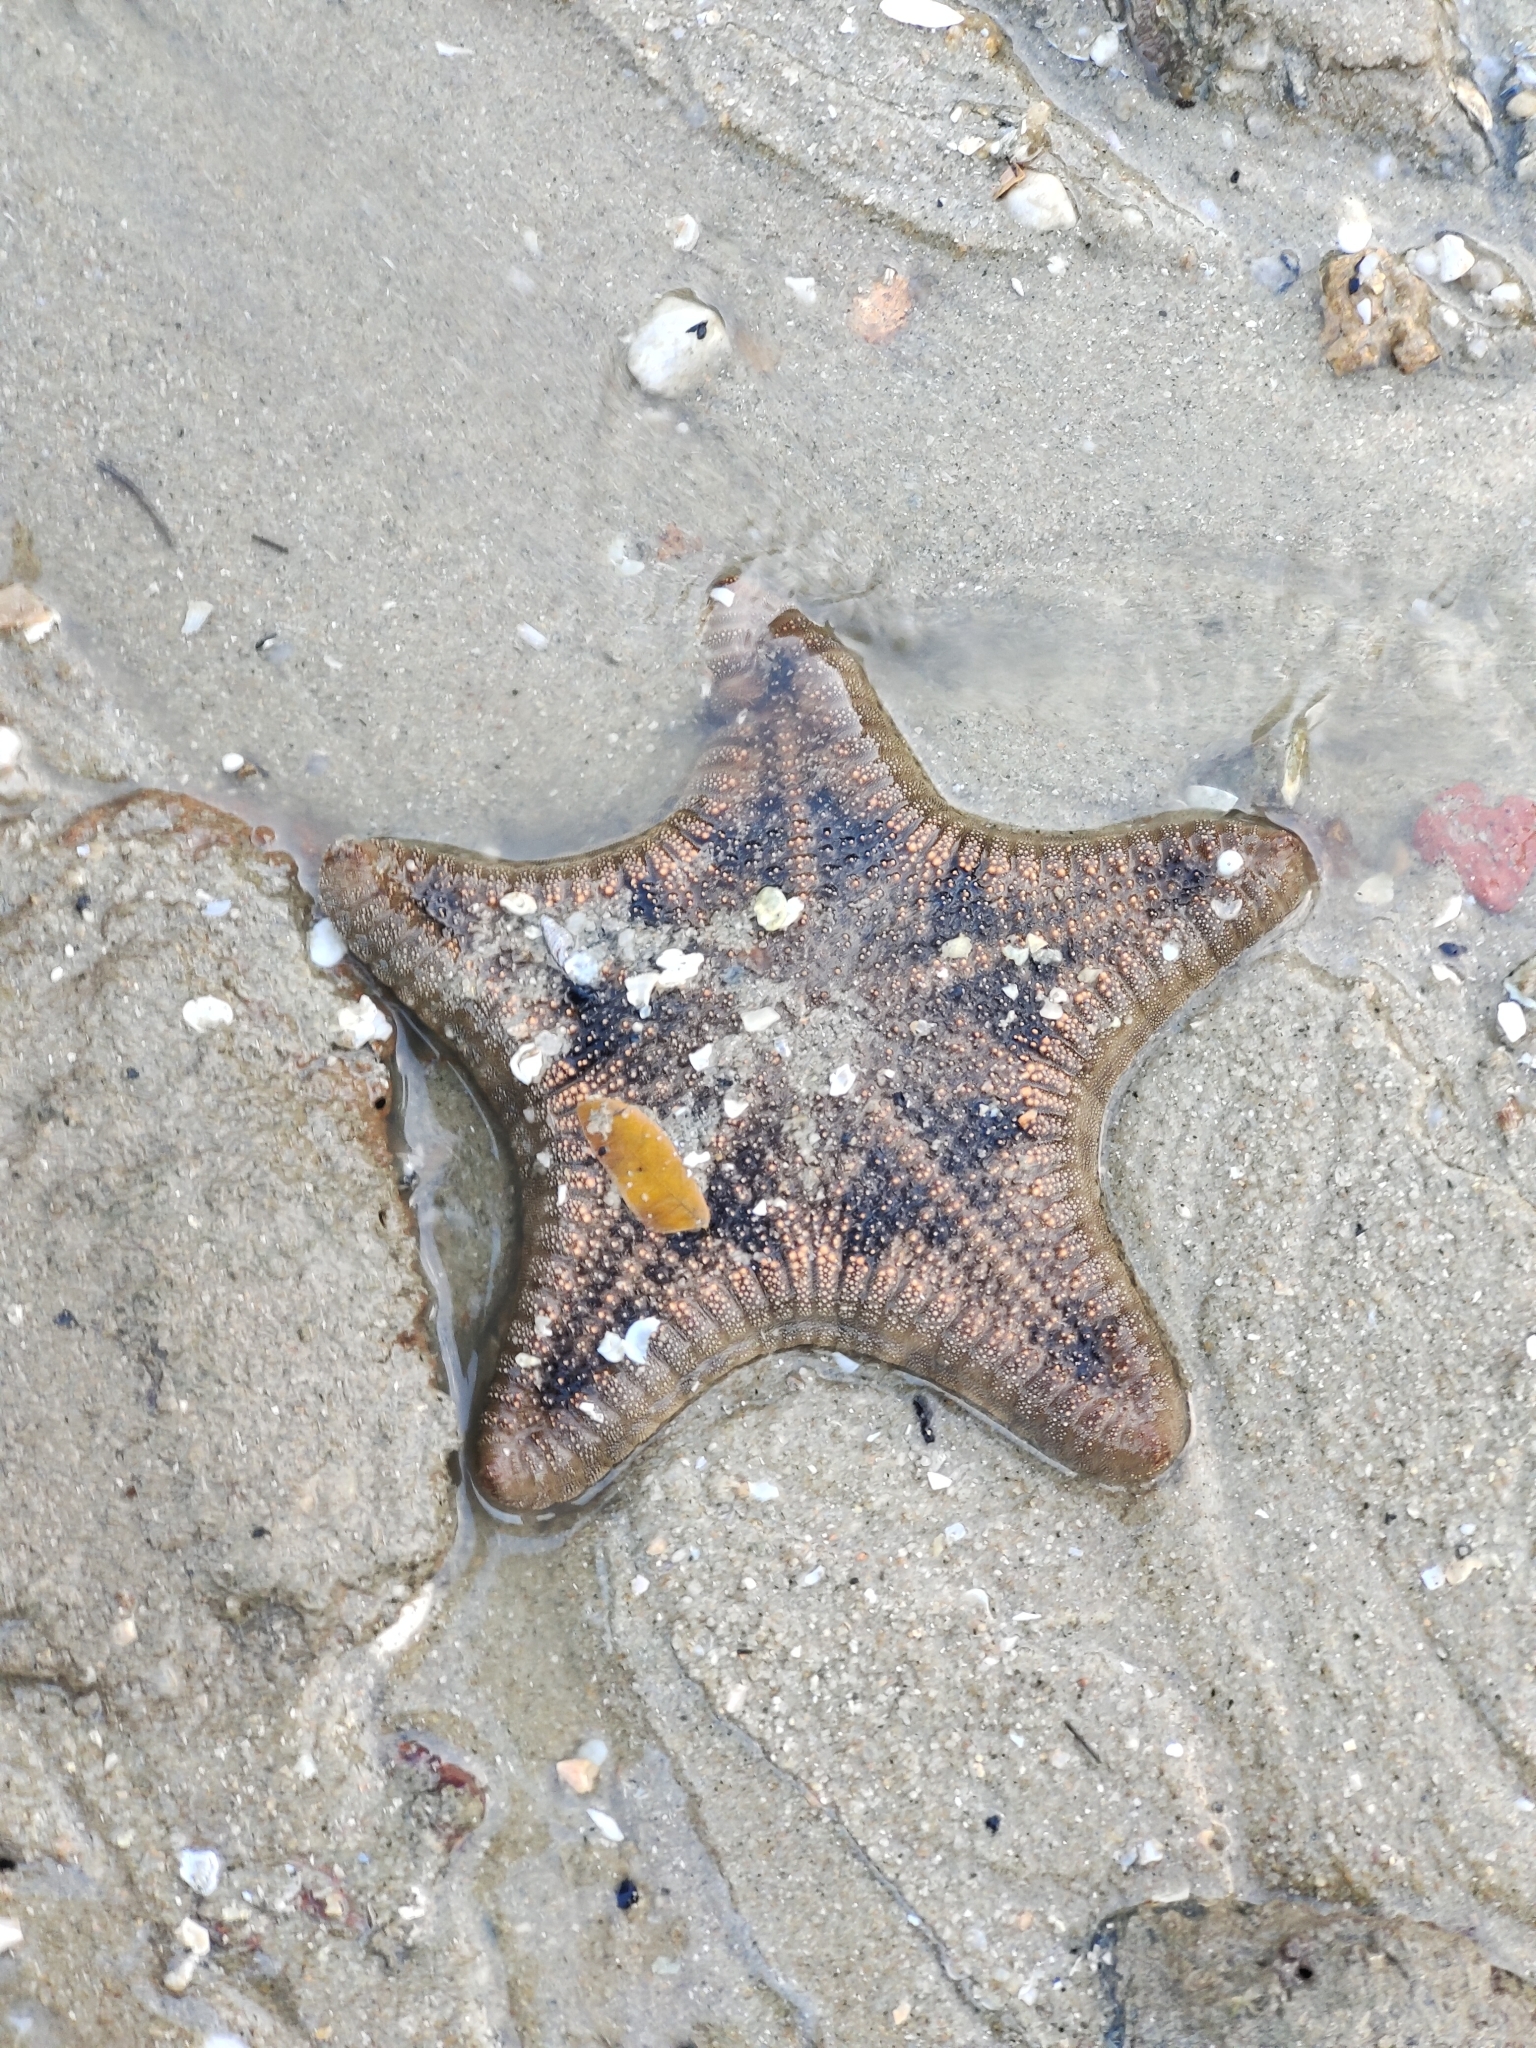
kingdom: Animalia
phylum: Echinodermata
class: Asteroidea
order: Valvatida
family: Goniasteridae
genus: Goniodiscaster
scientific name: Goniodiscaster scaber
